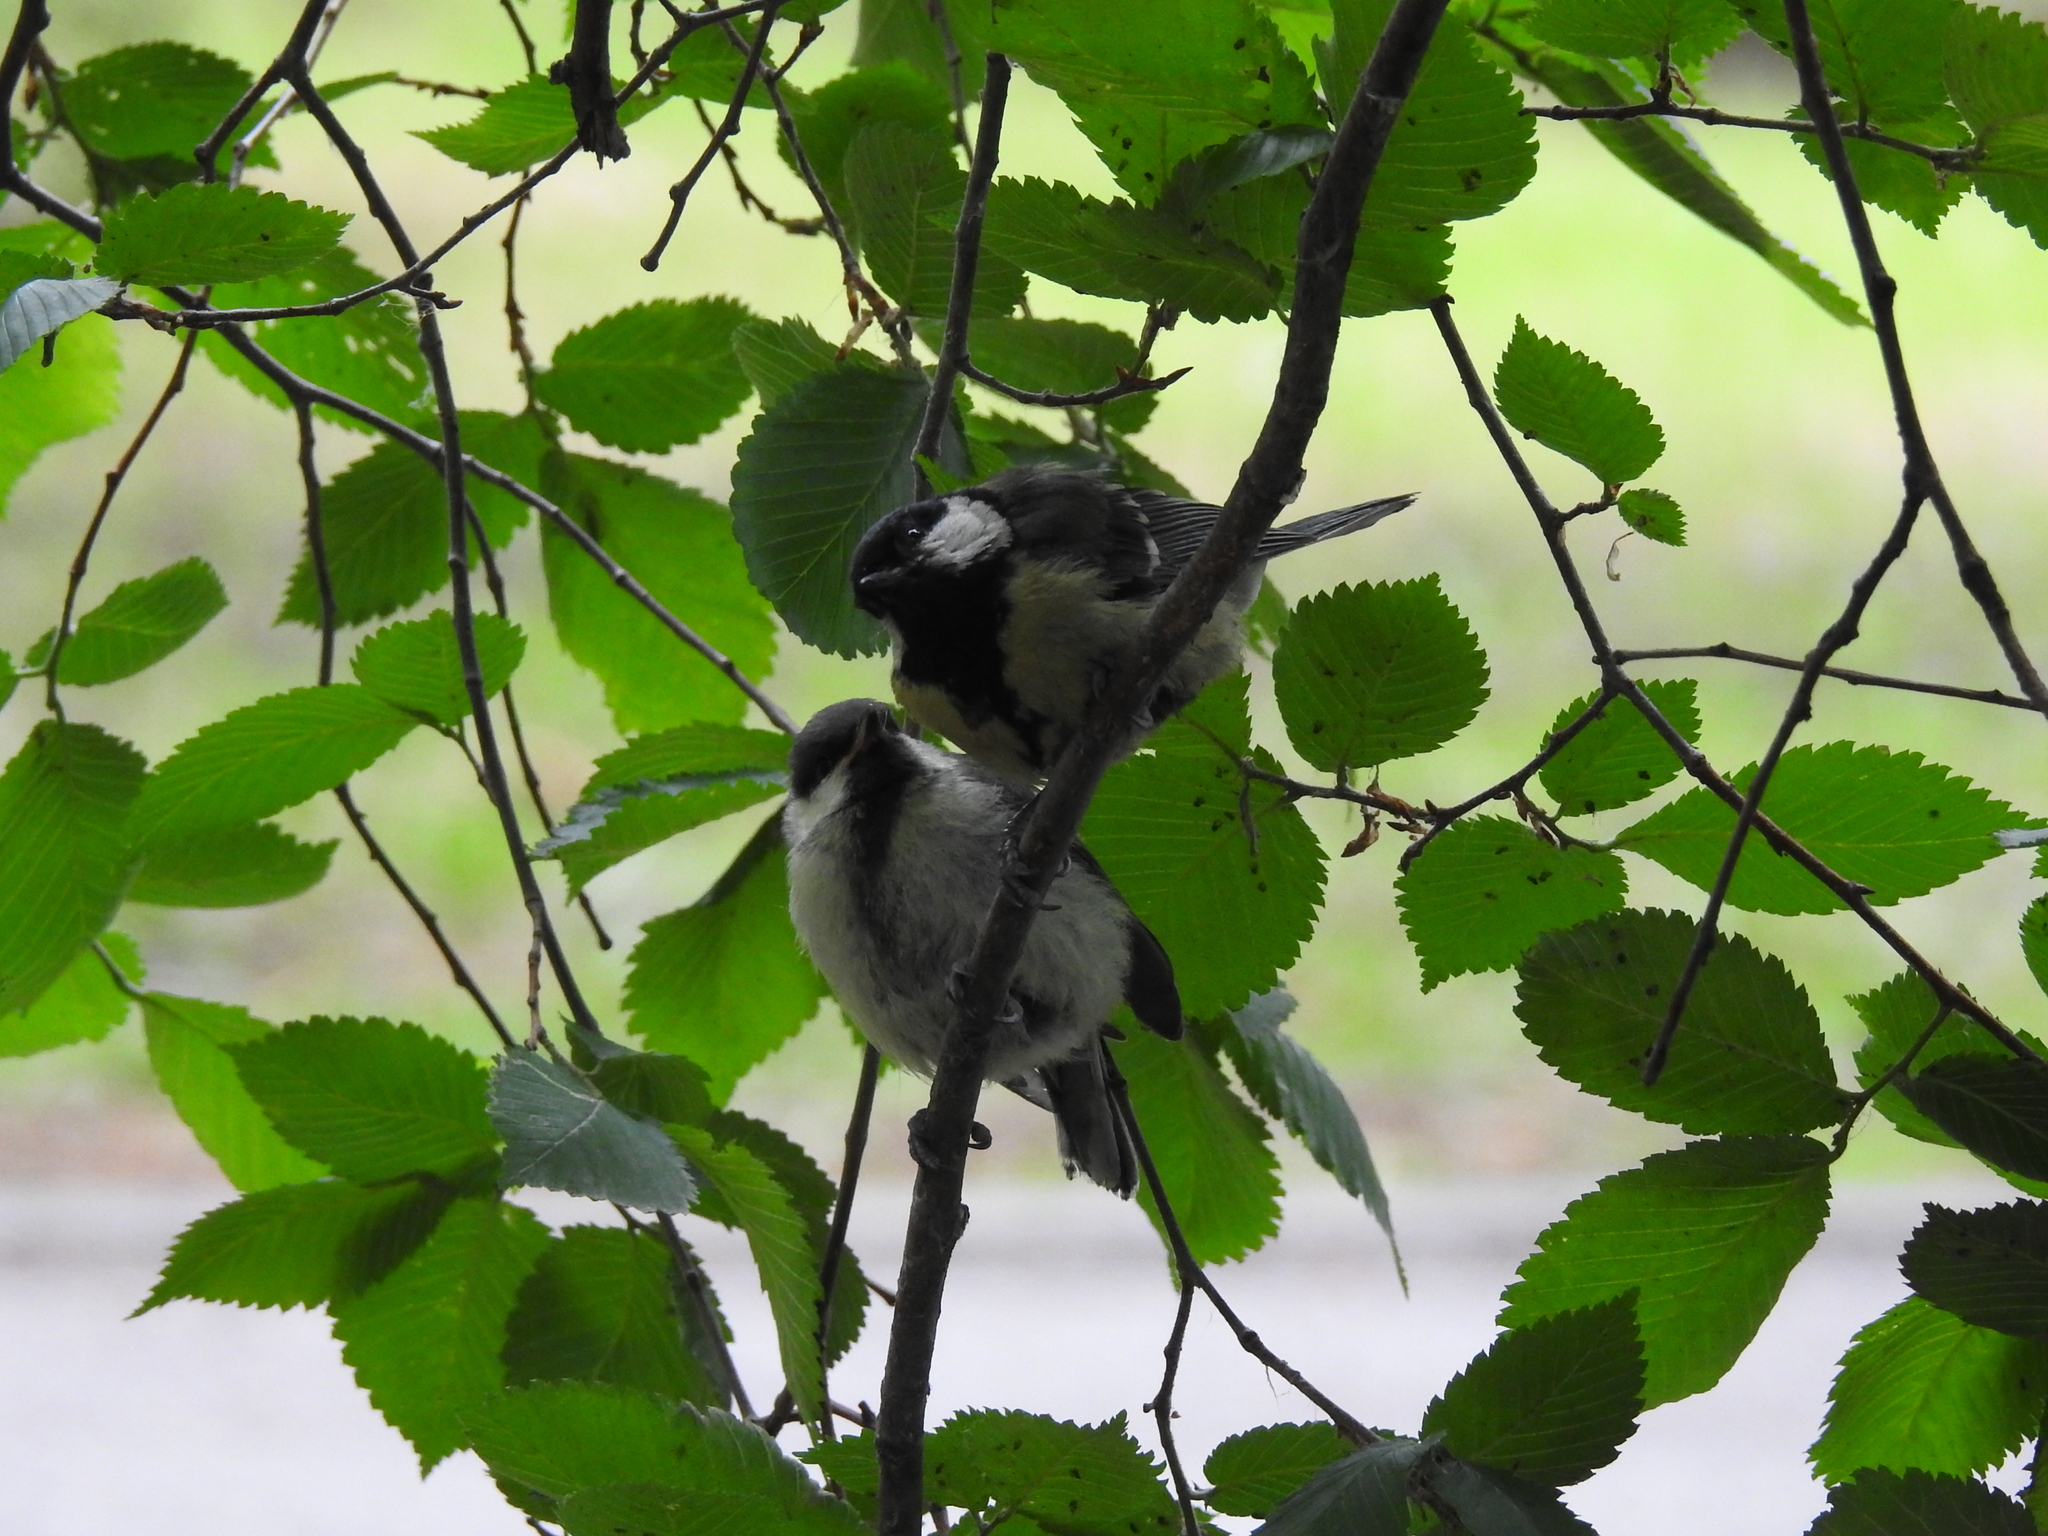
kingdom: Animalia
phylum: Chordata
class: Aves
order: Passeriformes
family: Paridae
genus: Parus
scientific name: Parus major
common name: Great tit
